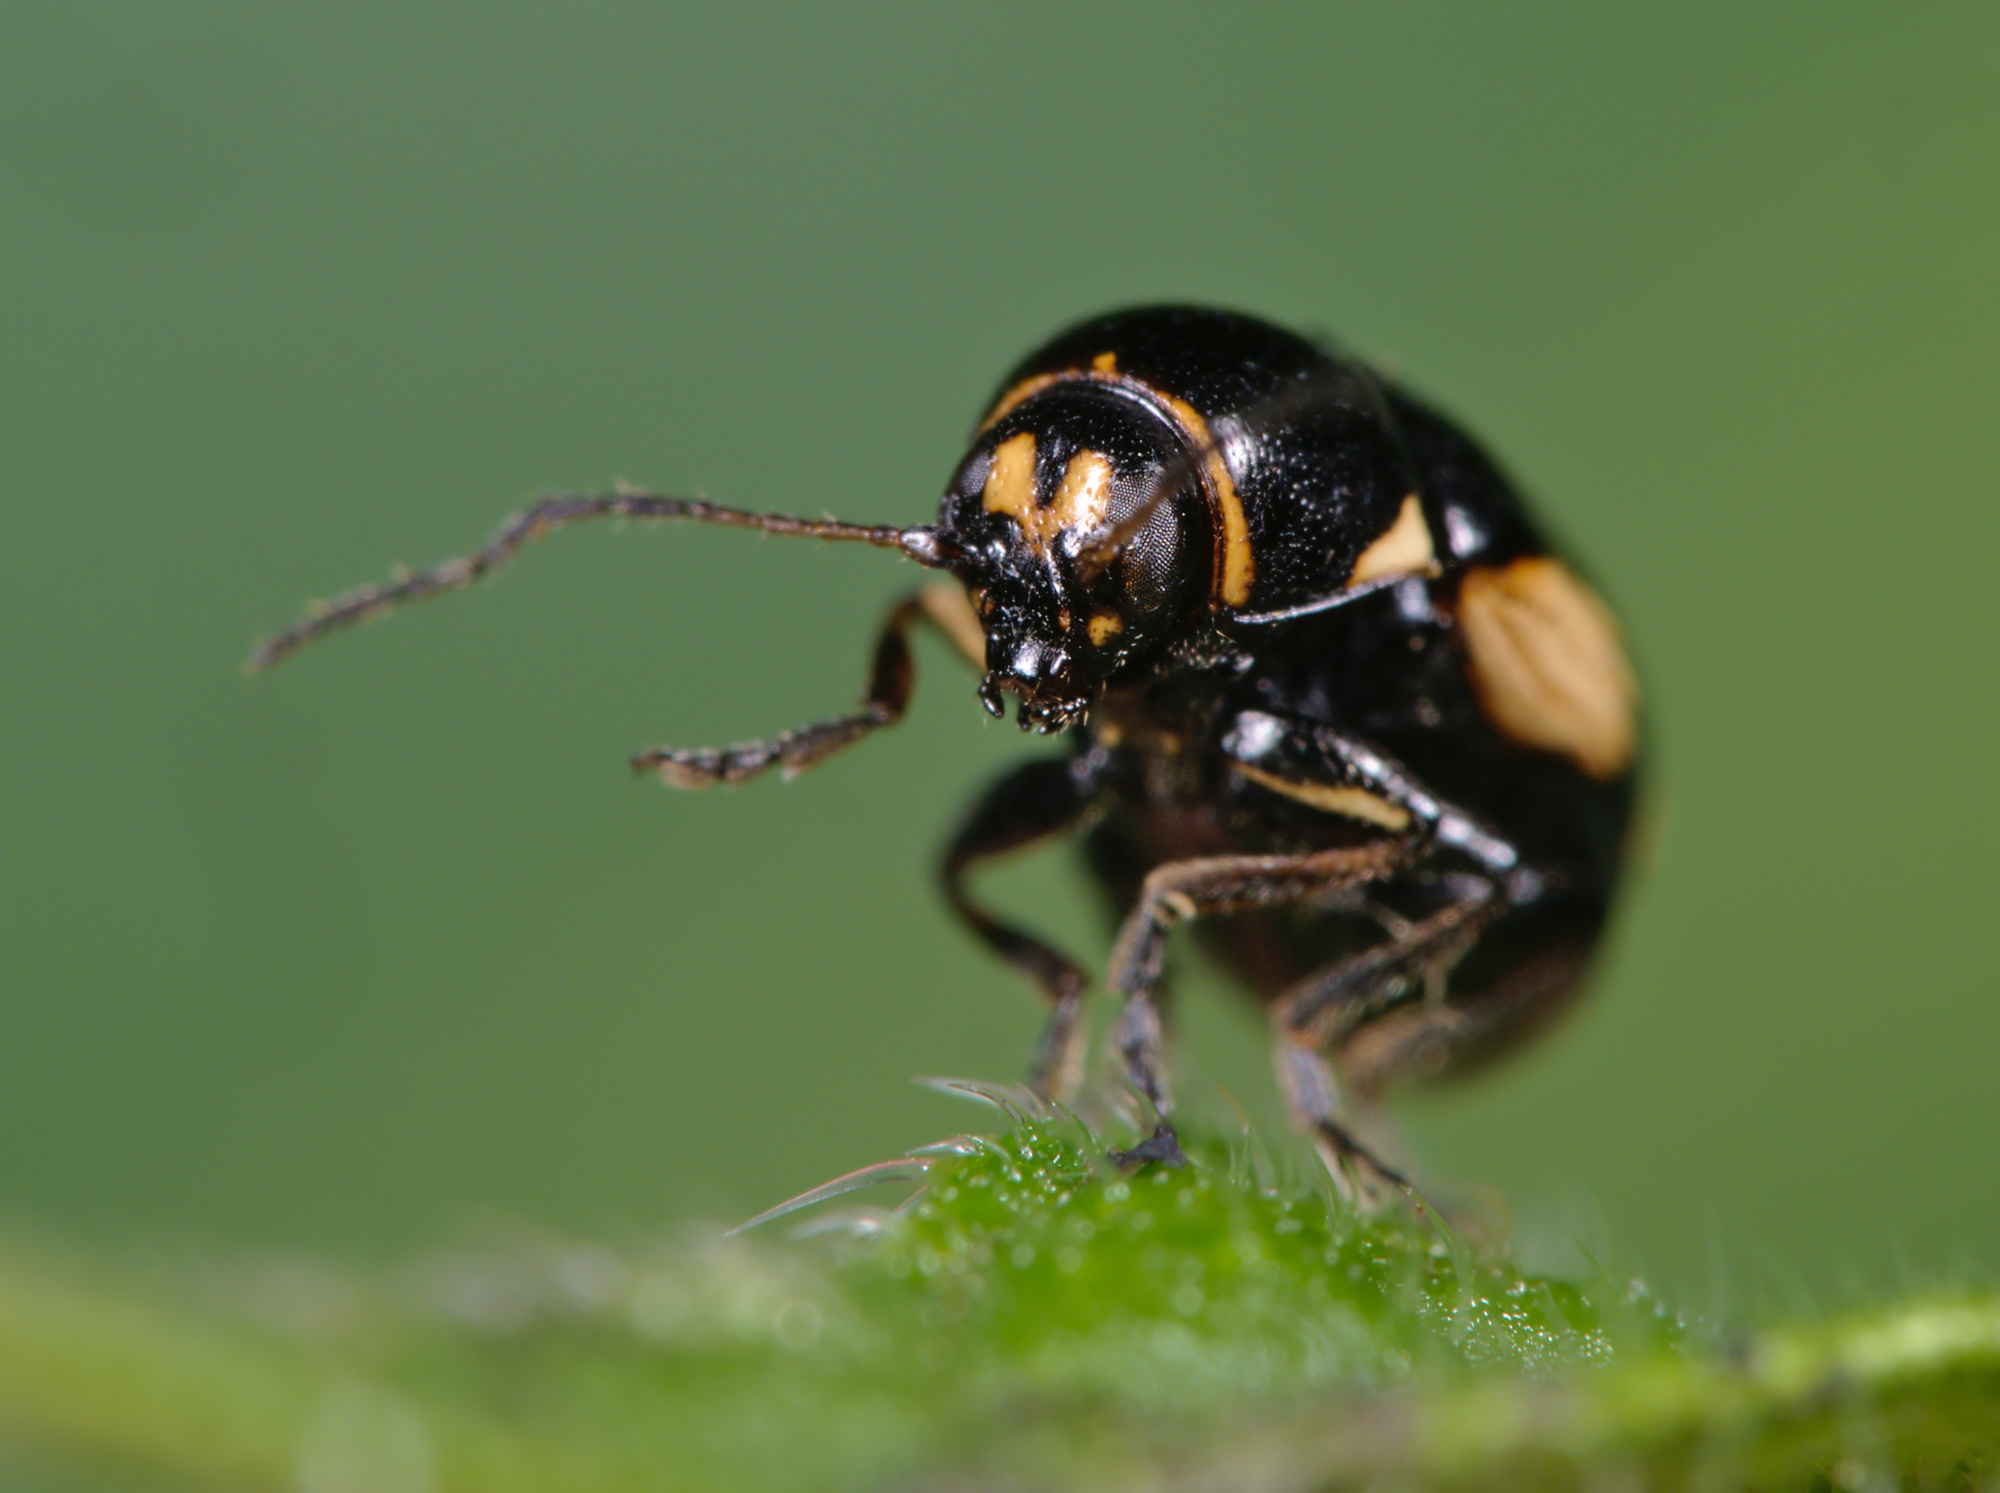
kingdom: Animalia
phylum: Arthropoda
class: Insecta
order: Coleoptera
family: Chrysomelidae
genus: Cryptocephalus
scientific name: Cryptocephalus moraei
